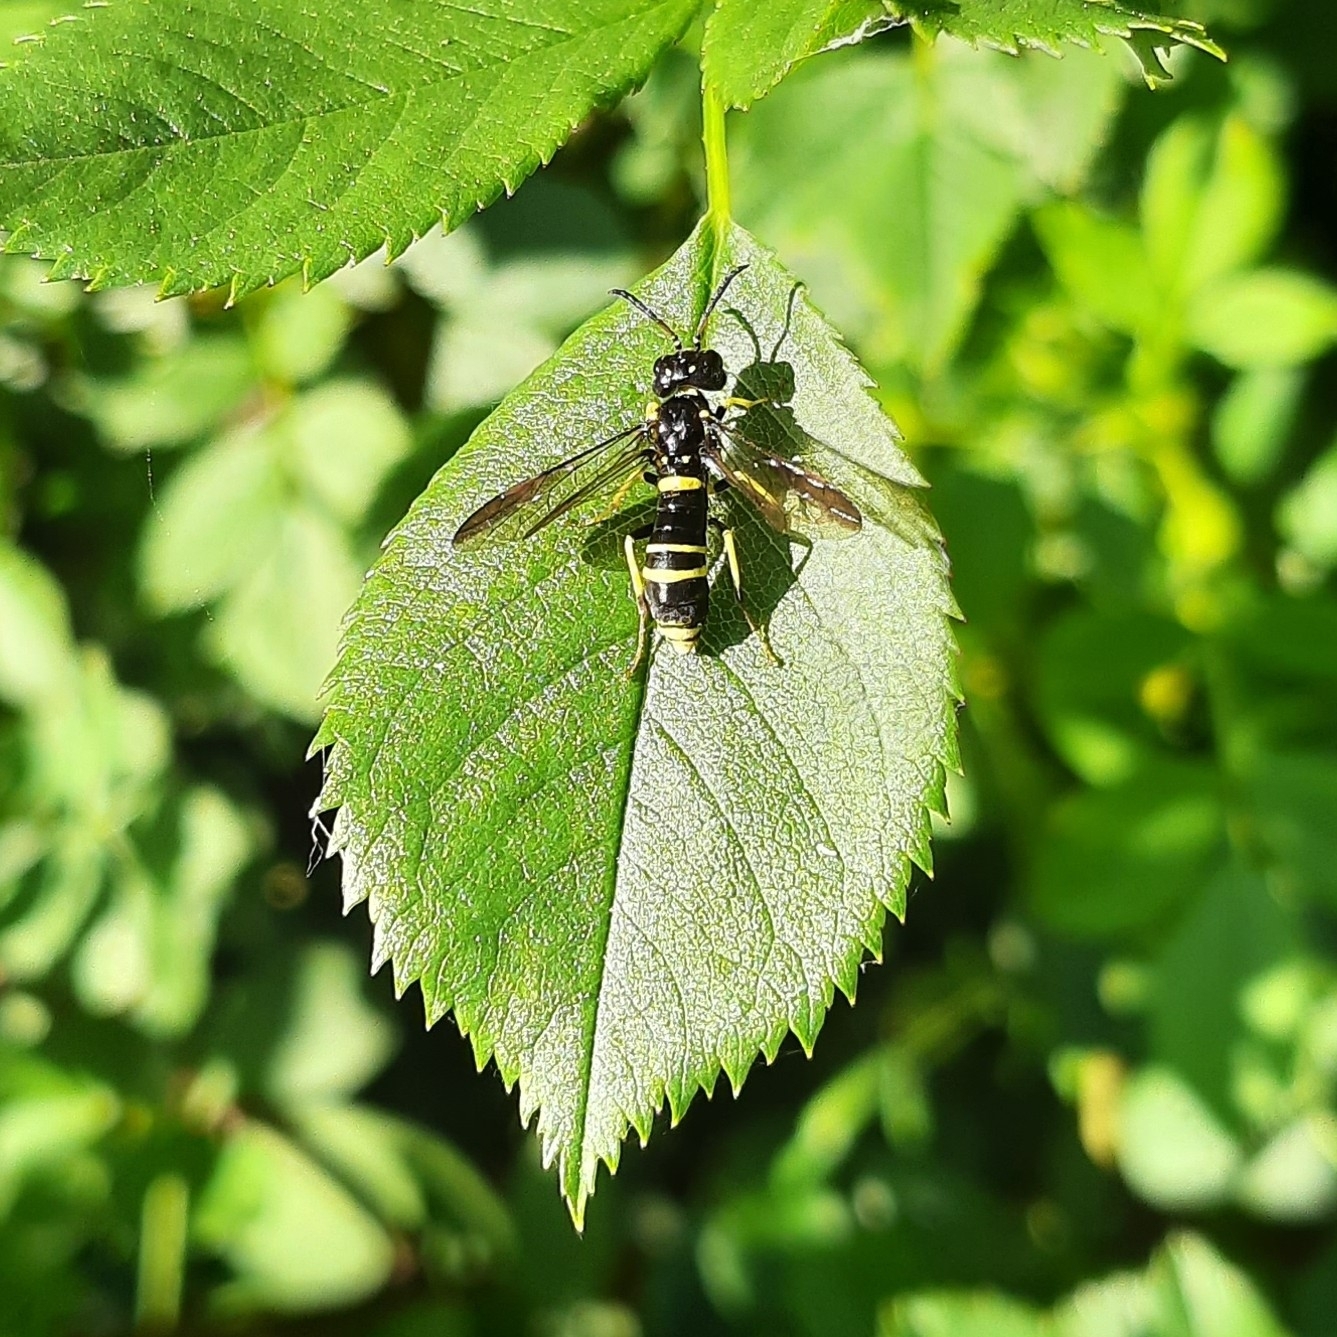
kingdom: Animalia
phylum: Arthropoda
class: Insecta
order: Hymenoptera
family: Tenthredinidae
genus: Allantus
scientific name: Allantus viennensis
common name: Sawfly
